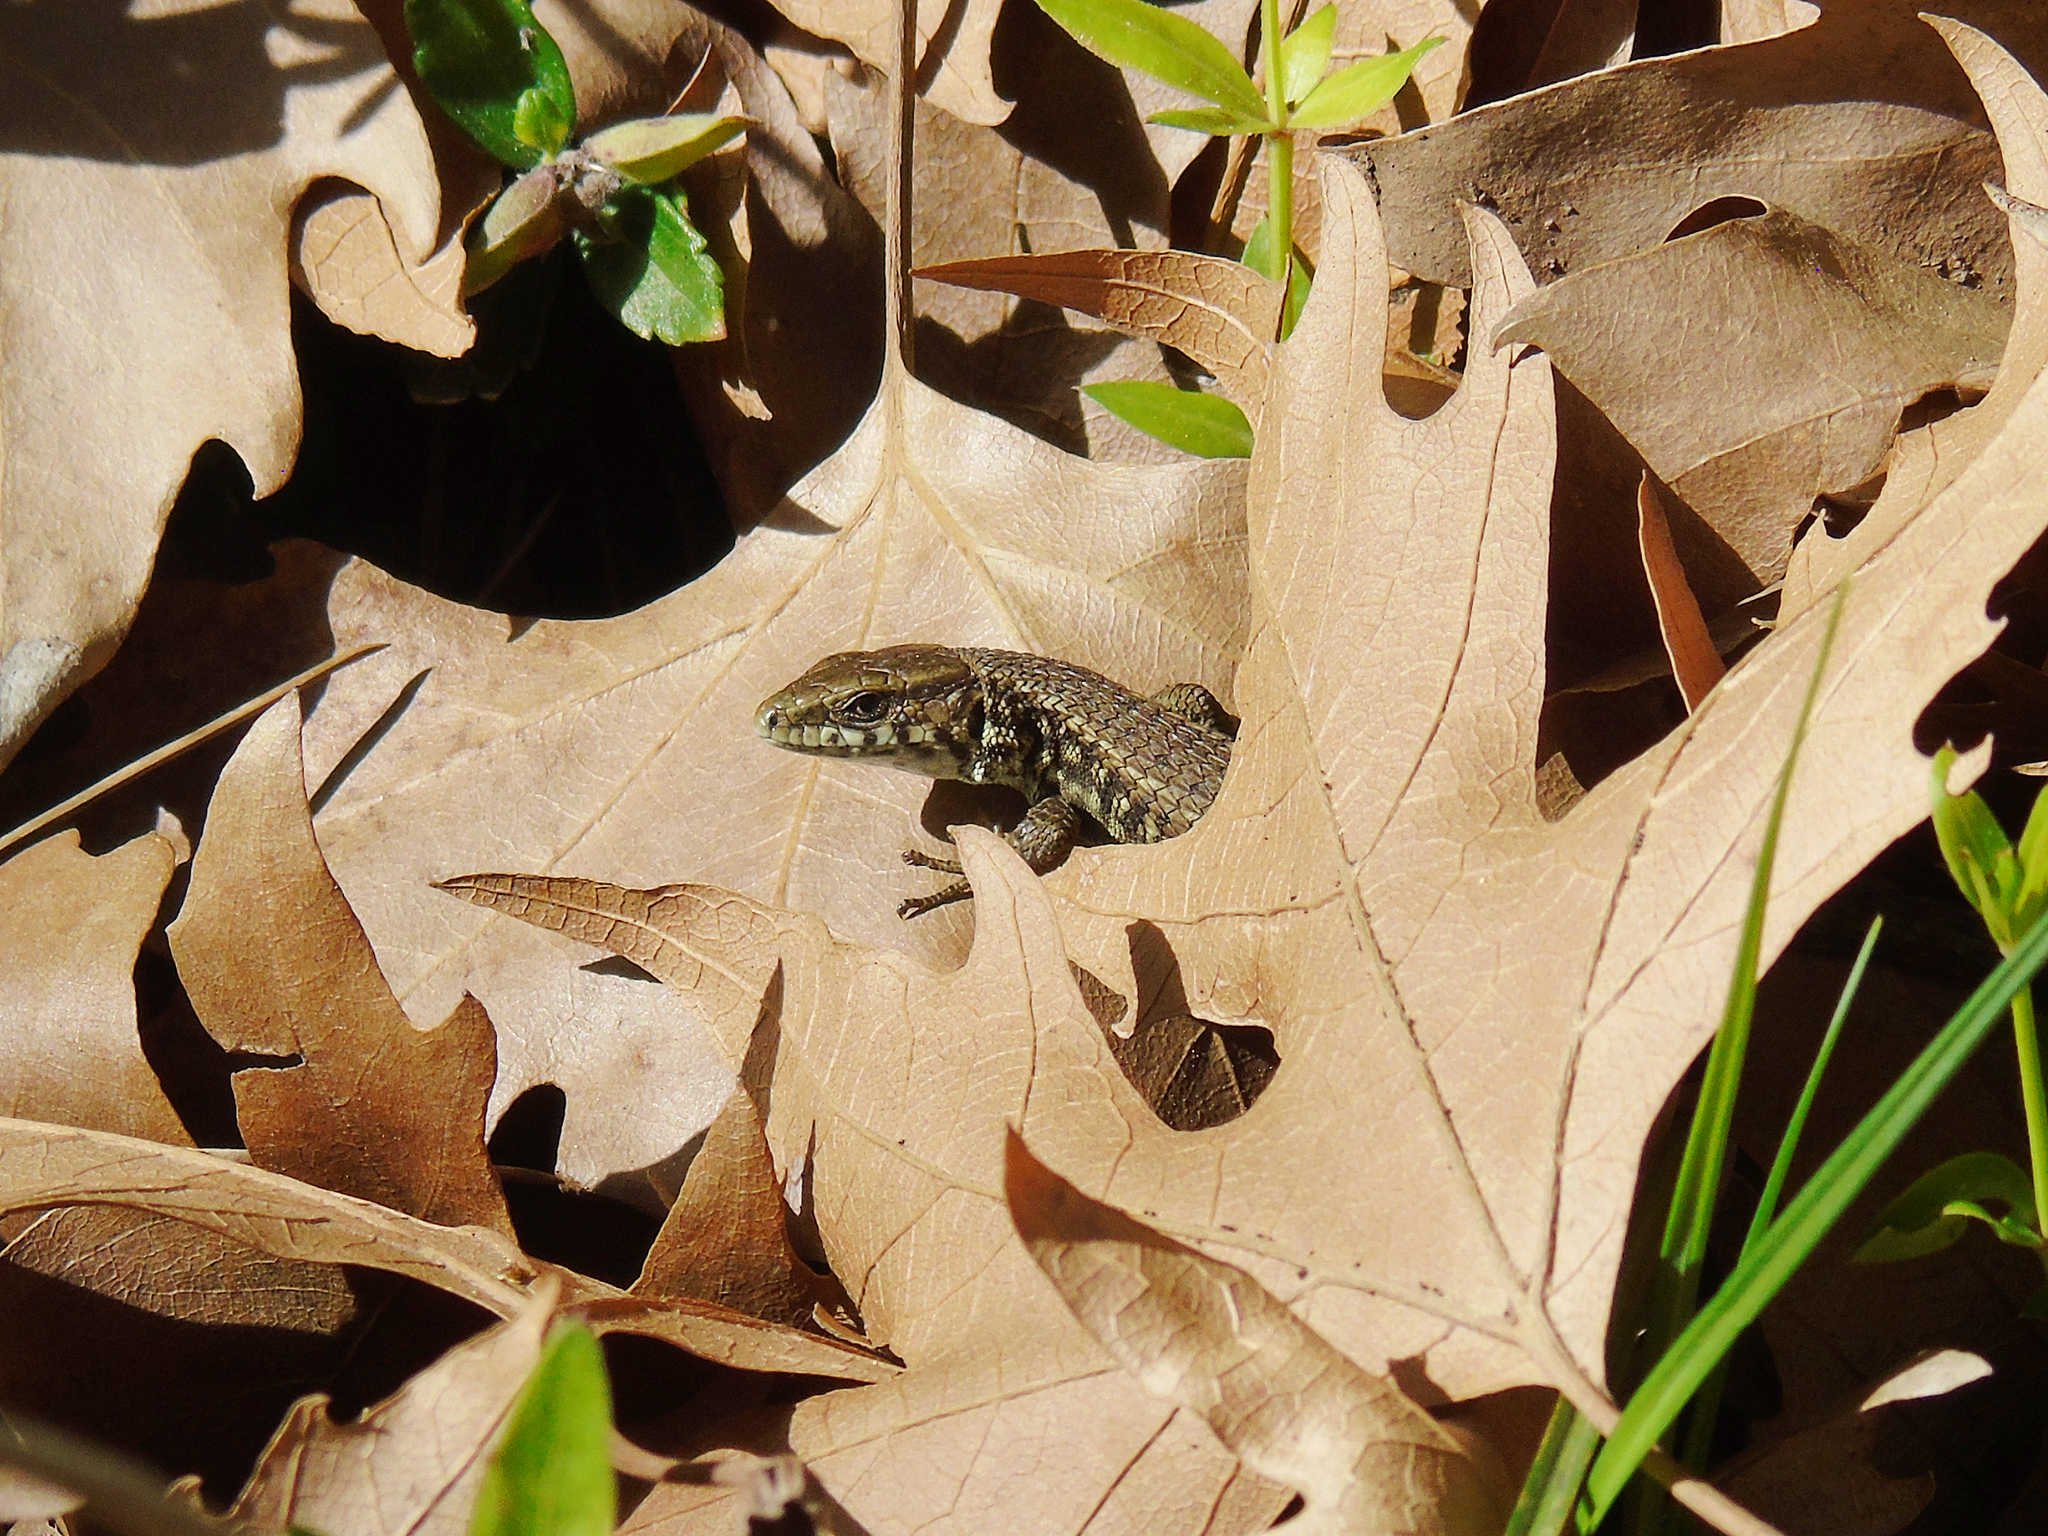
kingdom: Animalia
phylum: Chordata
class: Squamata
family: Lacertidae
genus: Algyroides
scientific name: Algyroides moreoticus
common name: Greek algyroides
